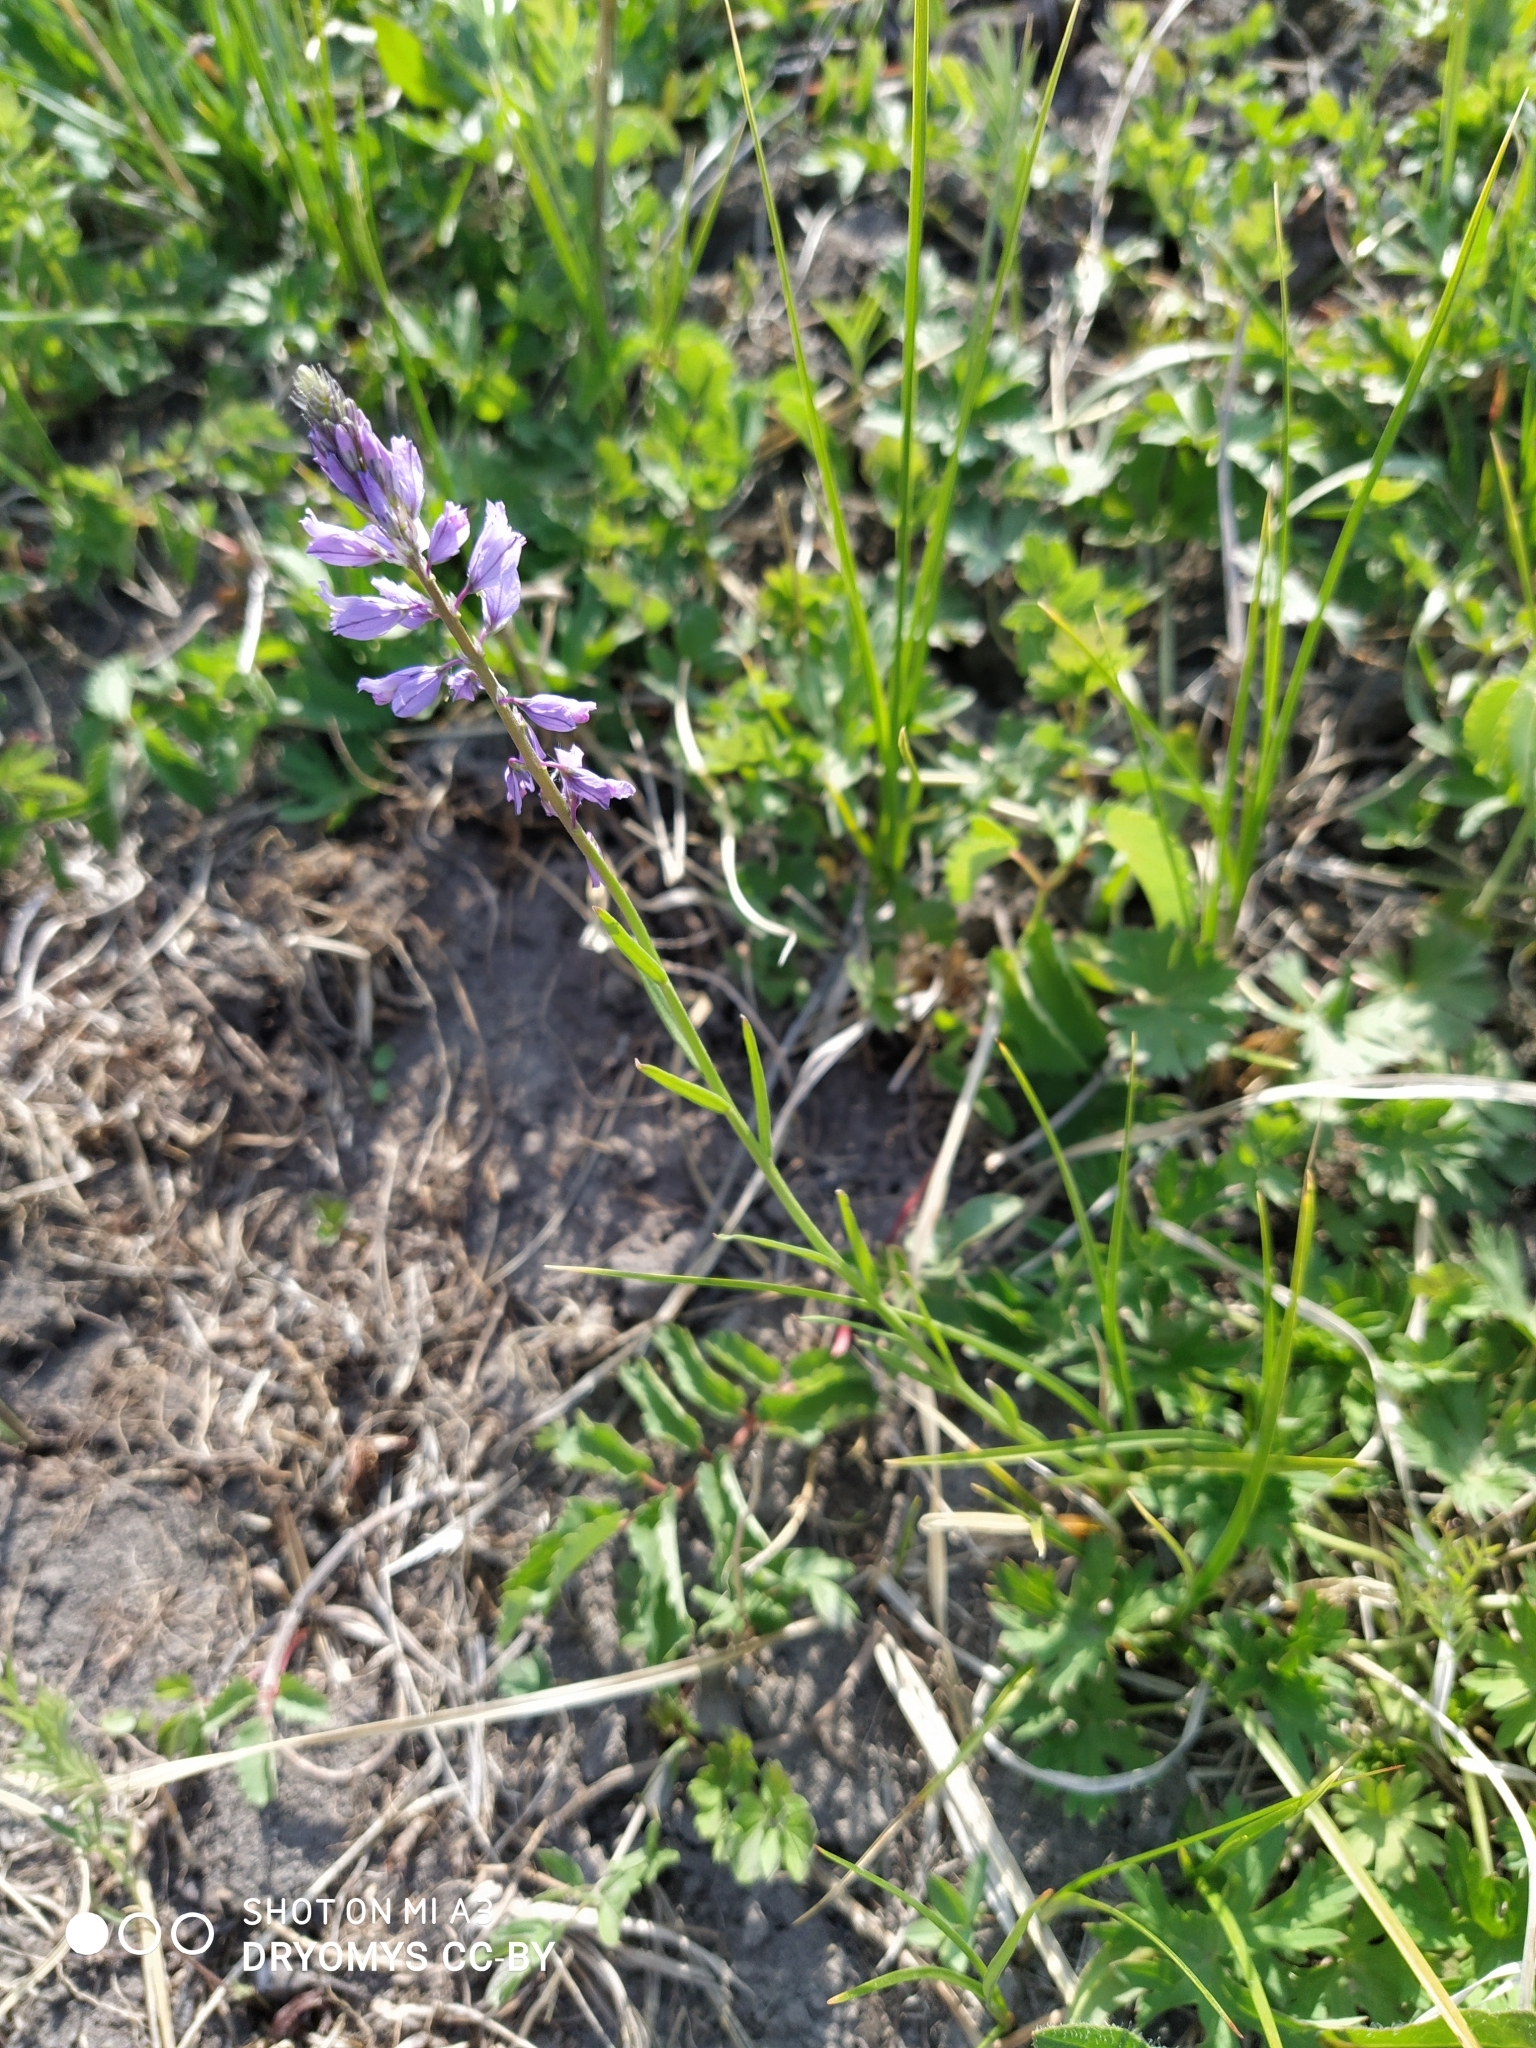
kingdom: Plantae
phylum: Tracheophyta
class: Magnoliopsida
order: Fabales
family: Polygalaceae
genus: Polygala
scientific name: Polygala comosa
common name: Tufted milkwort
